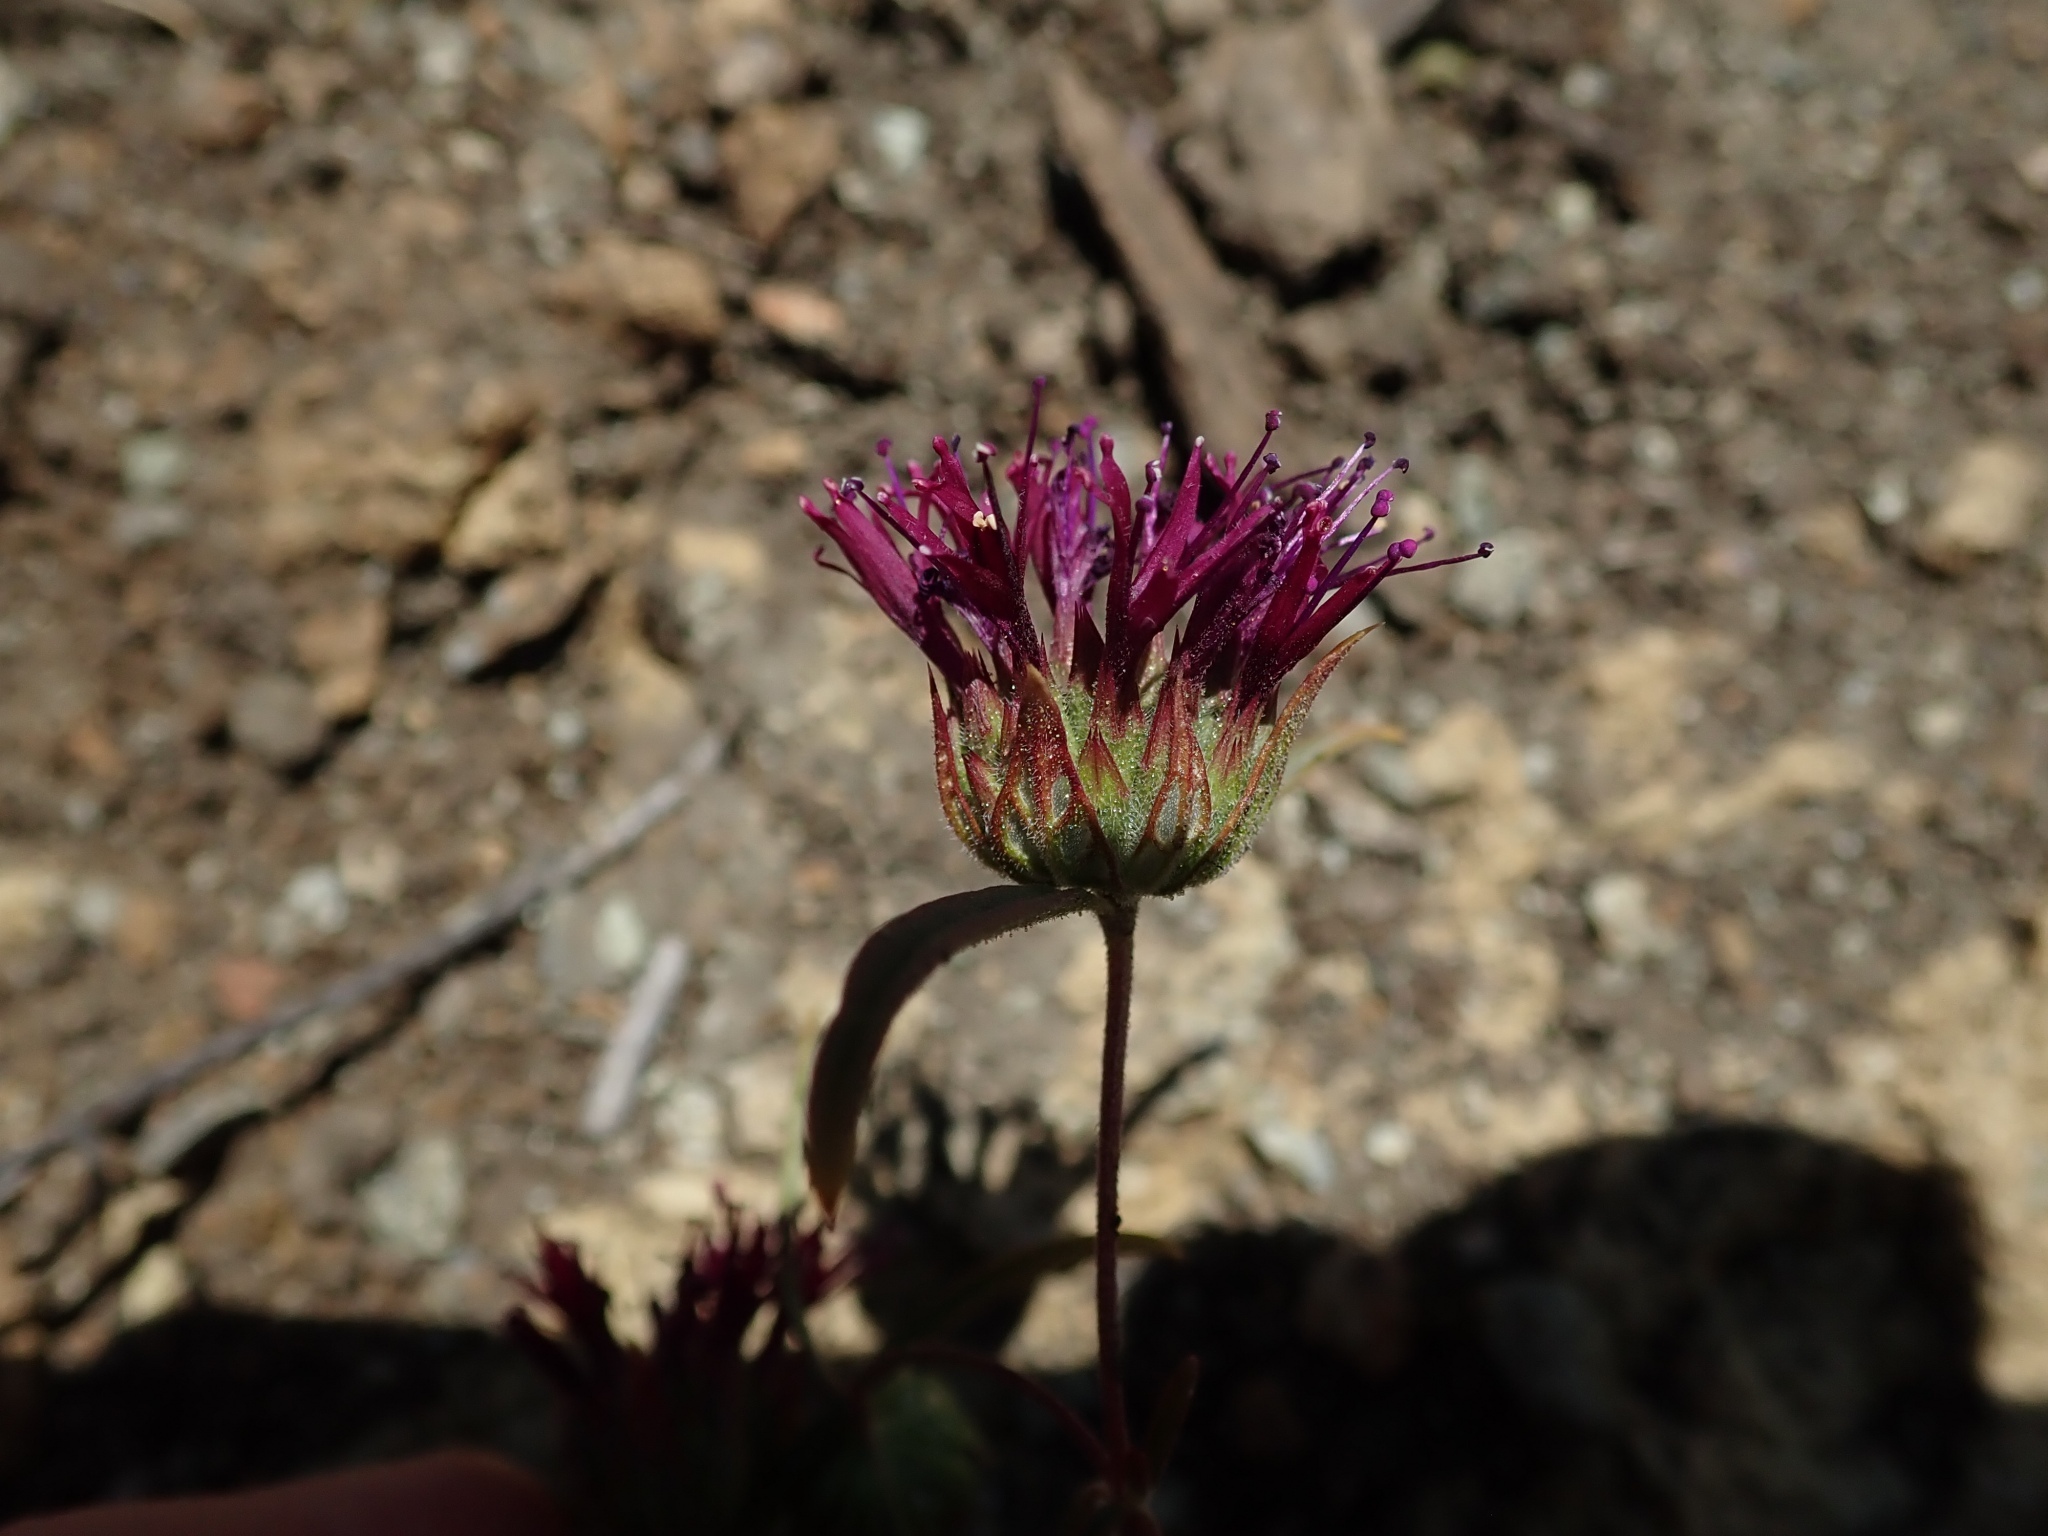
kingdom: Plantae
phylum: Tracheophyta
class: Magnoliopsida
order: Lamiales
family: Lamiaceae
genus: Monardella
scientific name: Monardella douglasii
